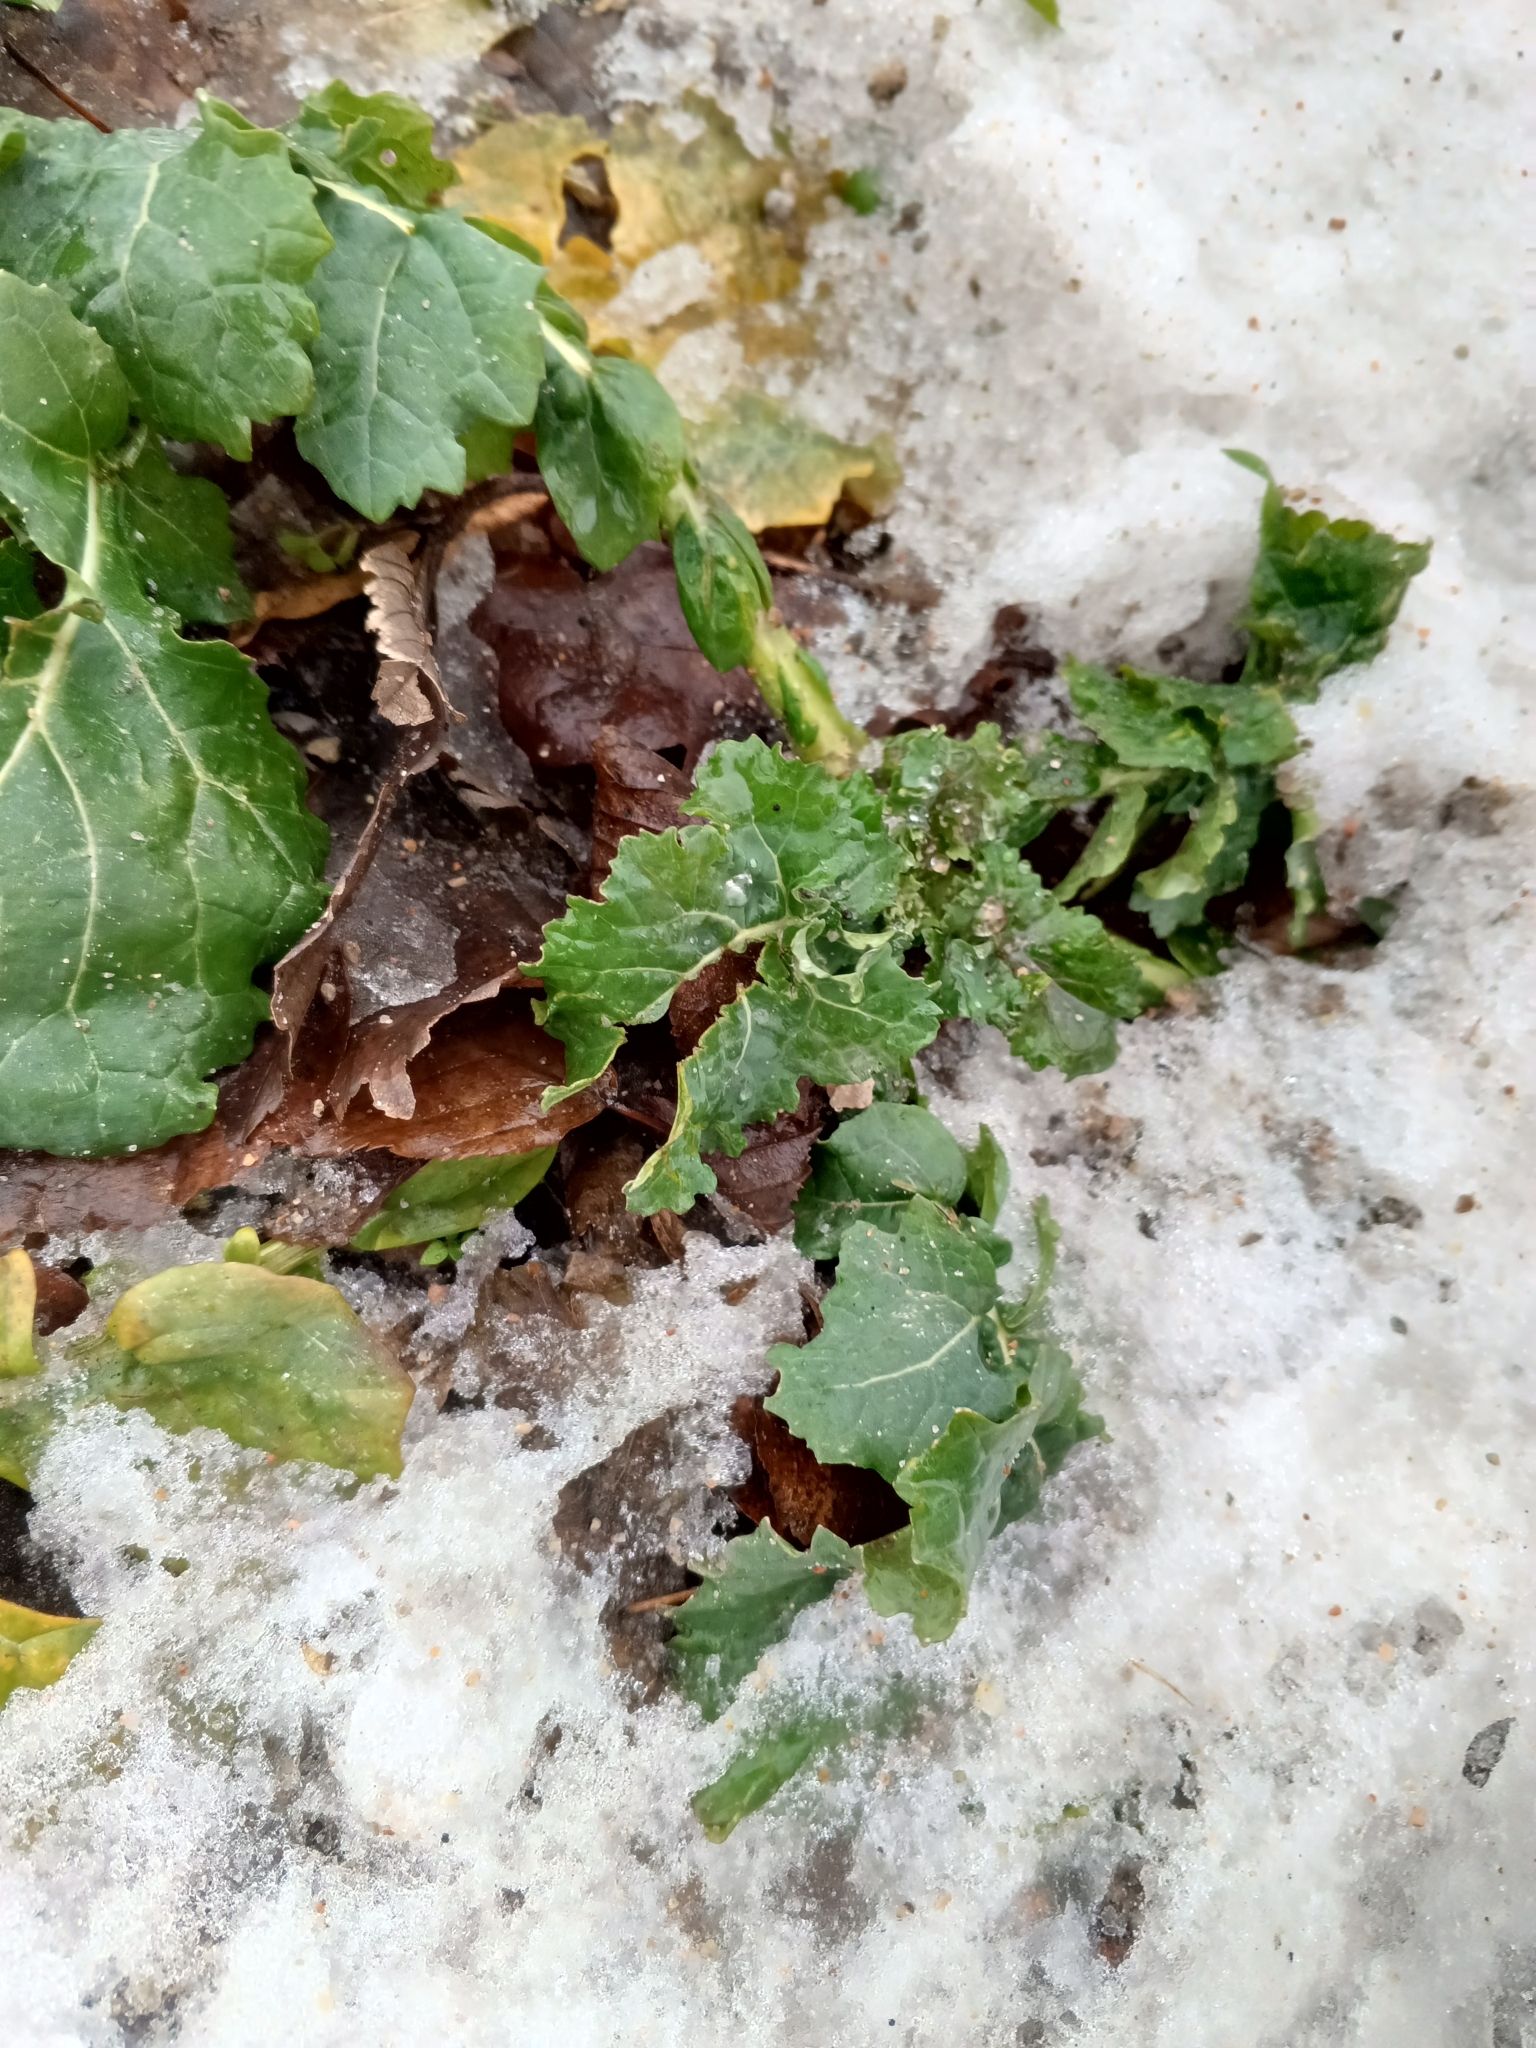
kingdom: Plantae
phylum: Tracheophyta
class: Magnoliopsida
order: Brassicales
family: Brassicaceae
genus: Brassica
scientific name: Brassica napus
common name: Rape
